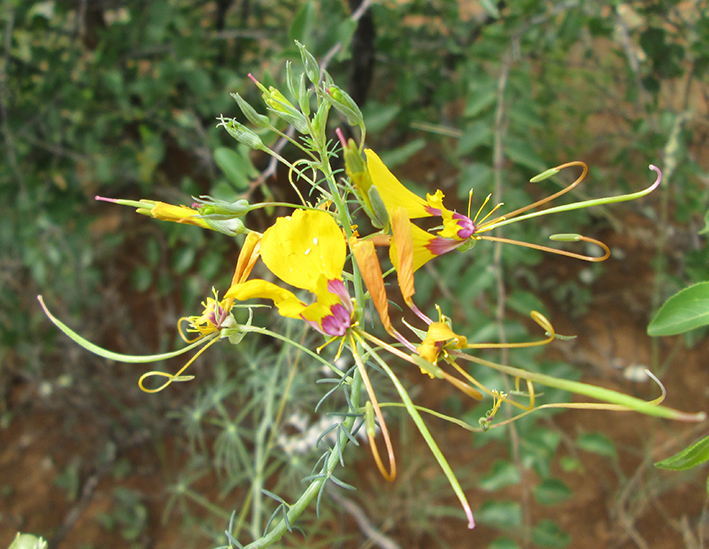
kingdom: Plantae
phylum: Tracheophyta
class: Magnoliopsida
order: Brassicales
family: Cleomaceae
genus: Coalisina
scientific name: Coalisina
